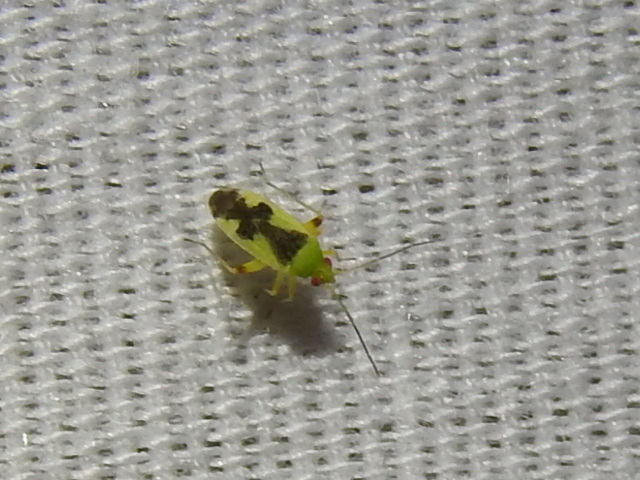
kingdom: Animalia
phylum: Arthropoda
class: Insecta
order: Hemiptera
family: Miridae
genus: Reuteroscopus
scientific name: Reuteroscopus femoralis
